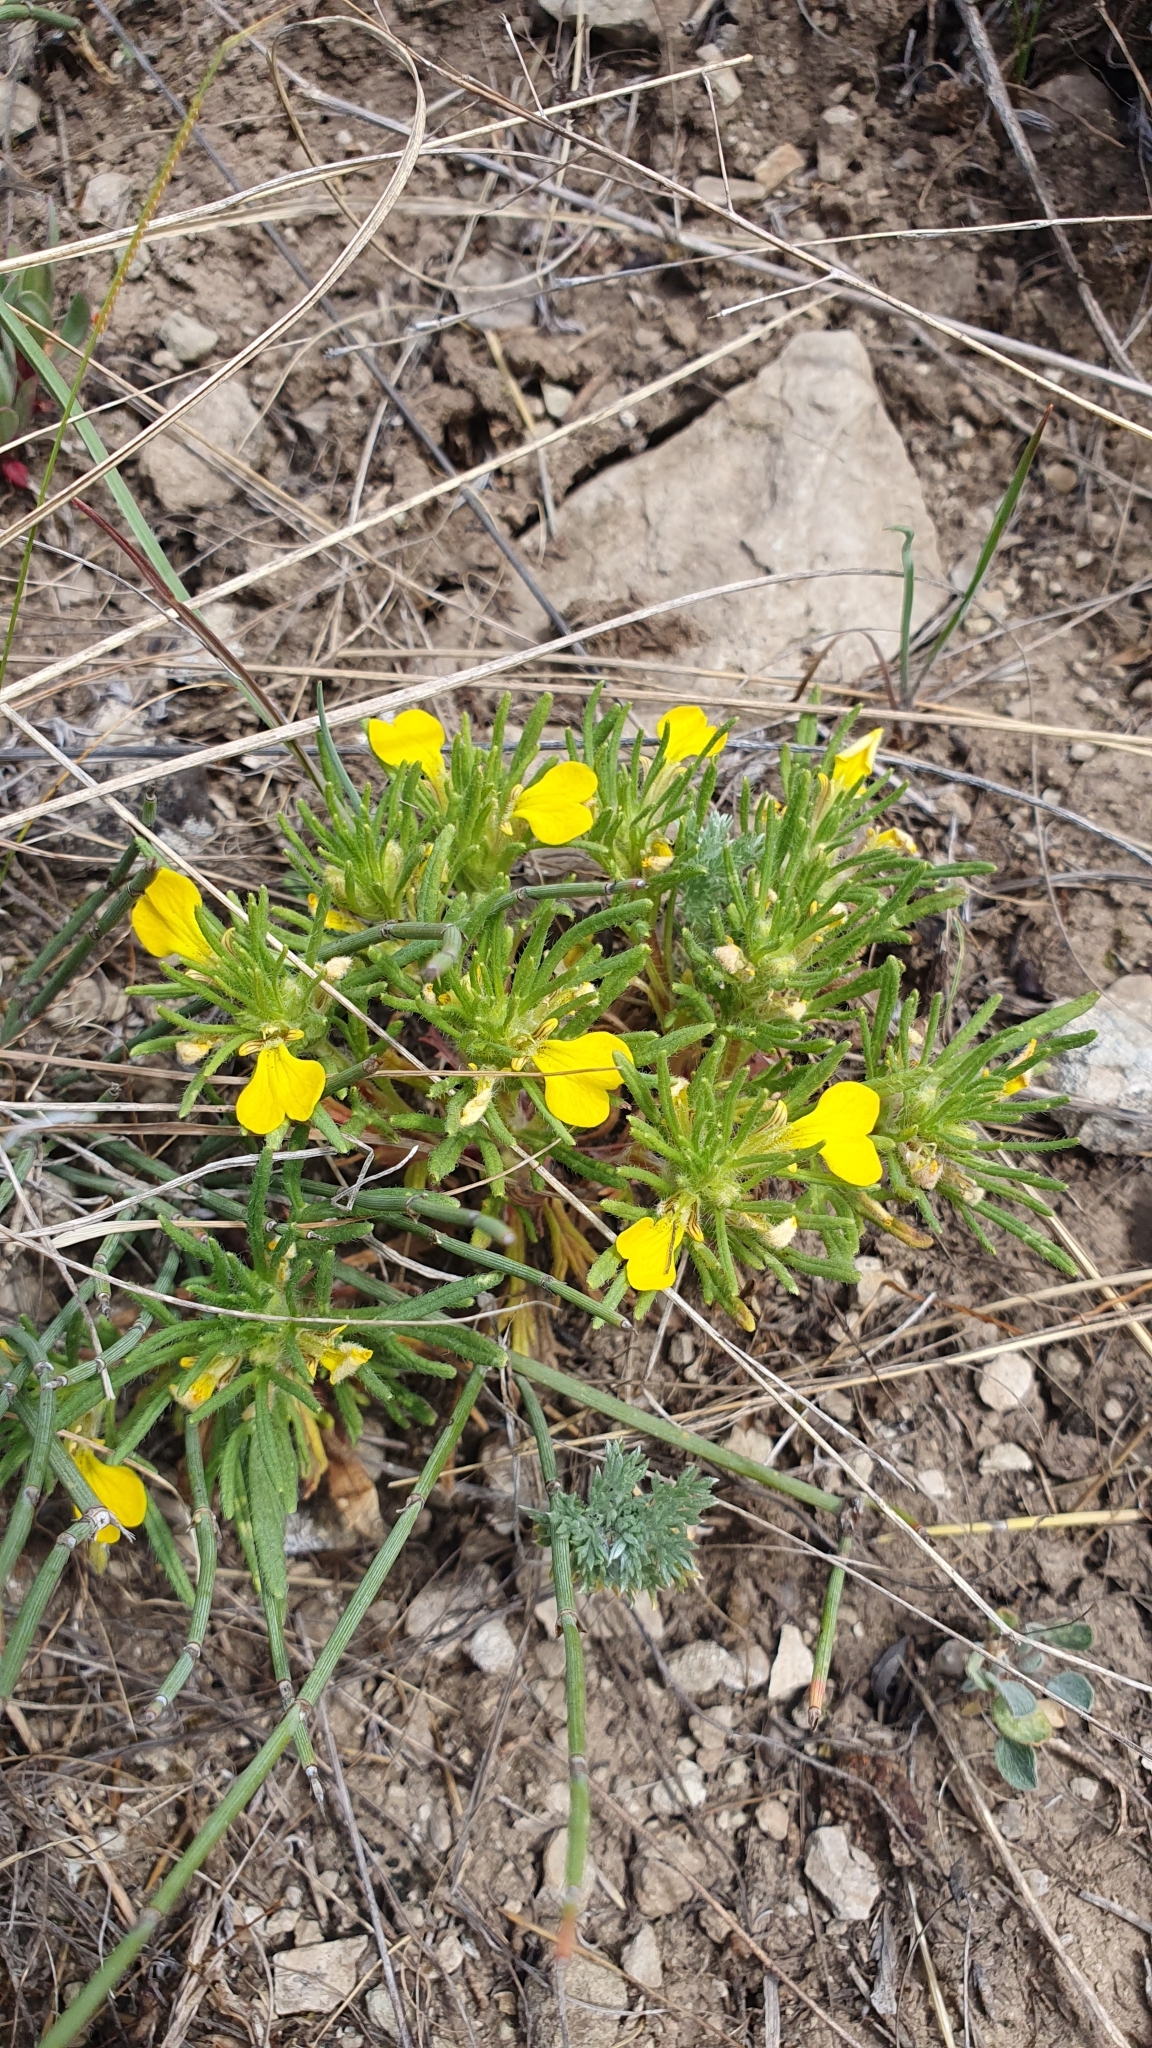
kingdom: Plantae
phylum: Tracheophyta
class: Magnoliopsida
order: Lamiales
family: Lamiaceae
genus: Ajuga
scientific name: Ajuga chamaepitys
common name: Ground-pine
